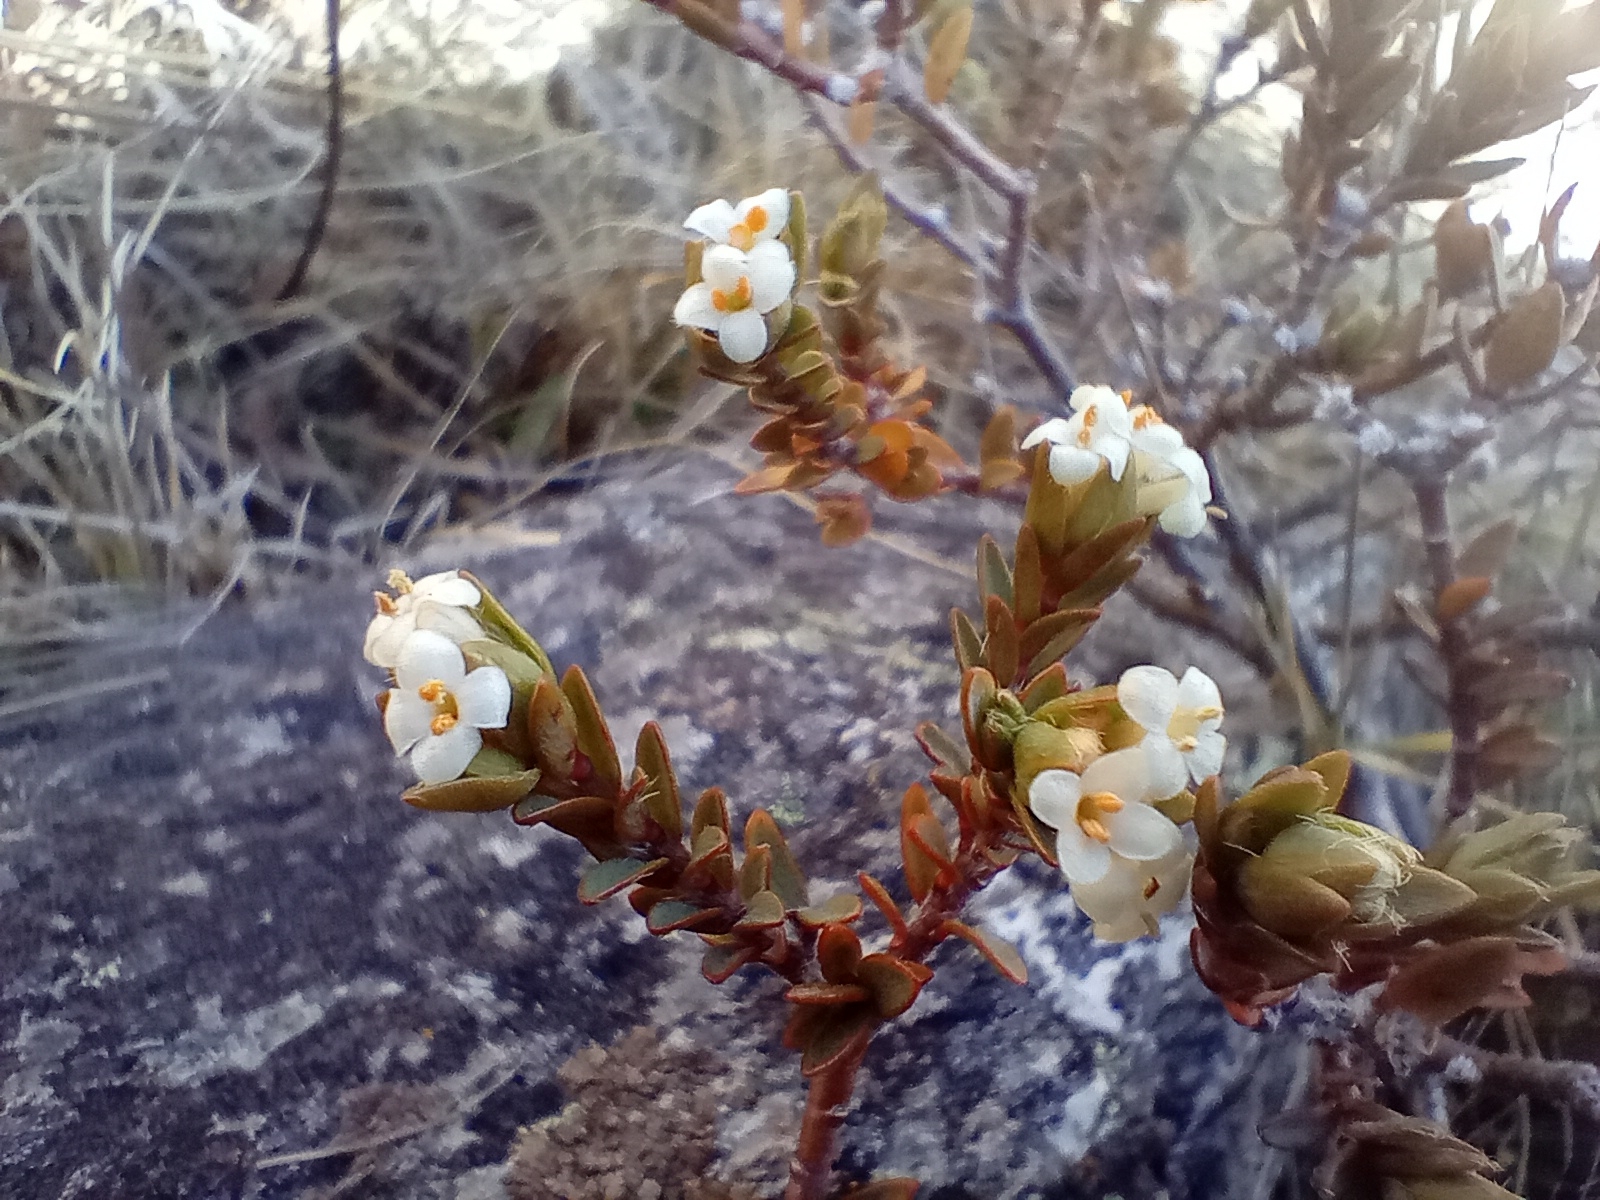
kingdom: Plantae
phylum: Tracheophyta
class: Magnoliopsida
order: Malvales
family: Thymelaeaceae
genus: Pimelea
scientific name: Pimelea oreophila
